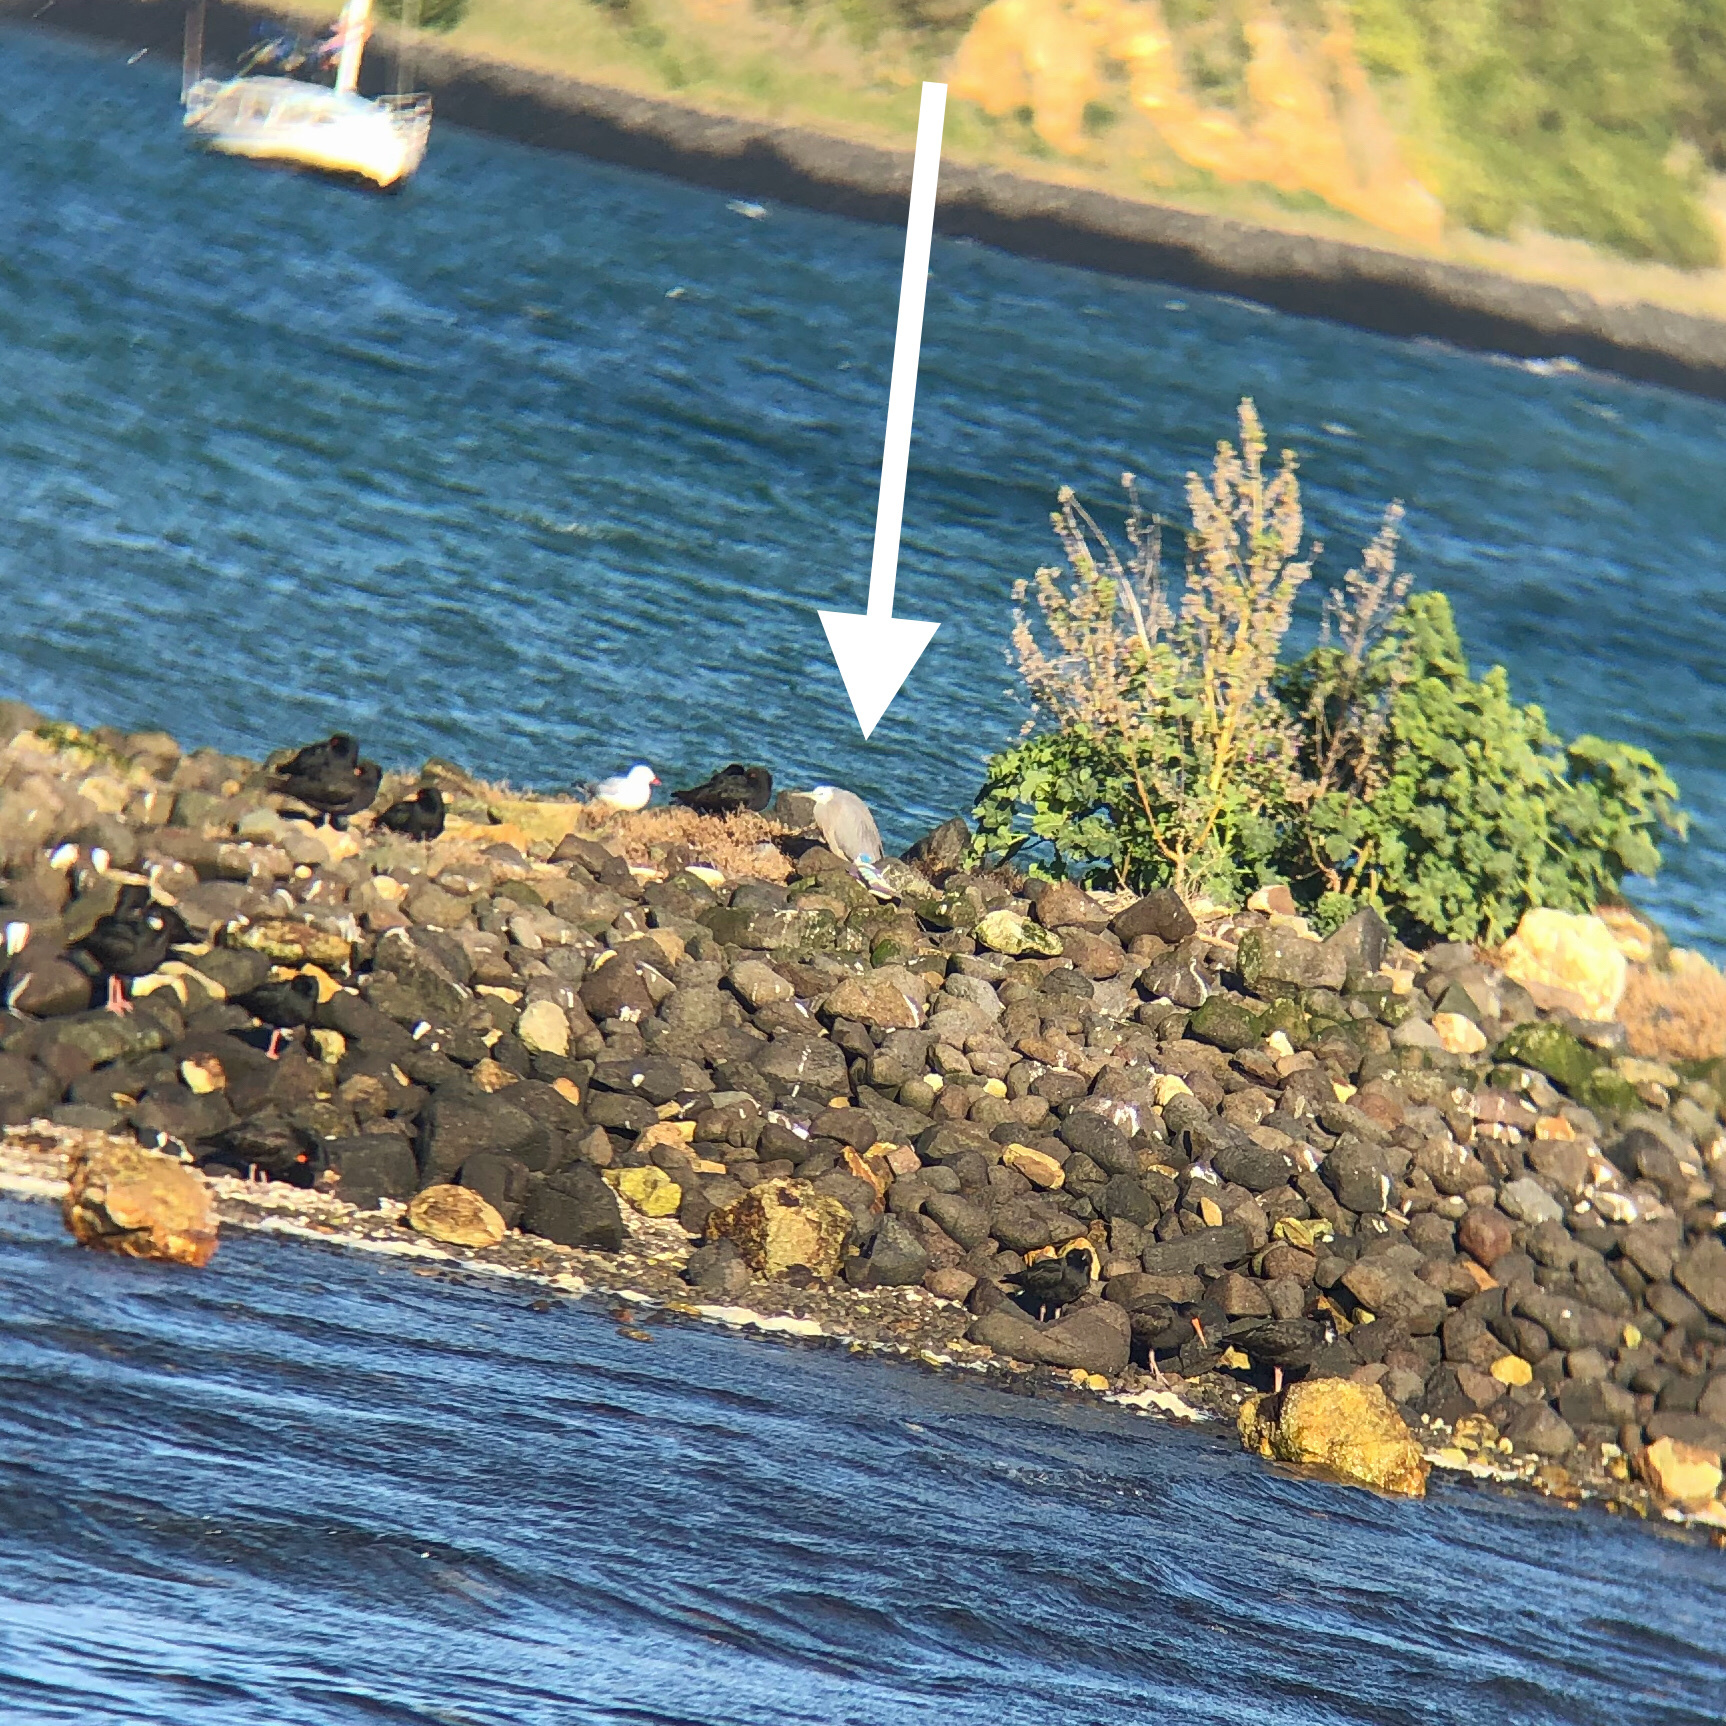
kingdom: Animalia
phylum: Chordata
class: Aves
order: Pelecaniformes
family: Ardeidae
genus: Egretta
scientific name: Egretta novaehollandiae
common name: White-faced heron
